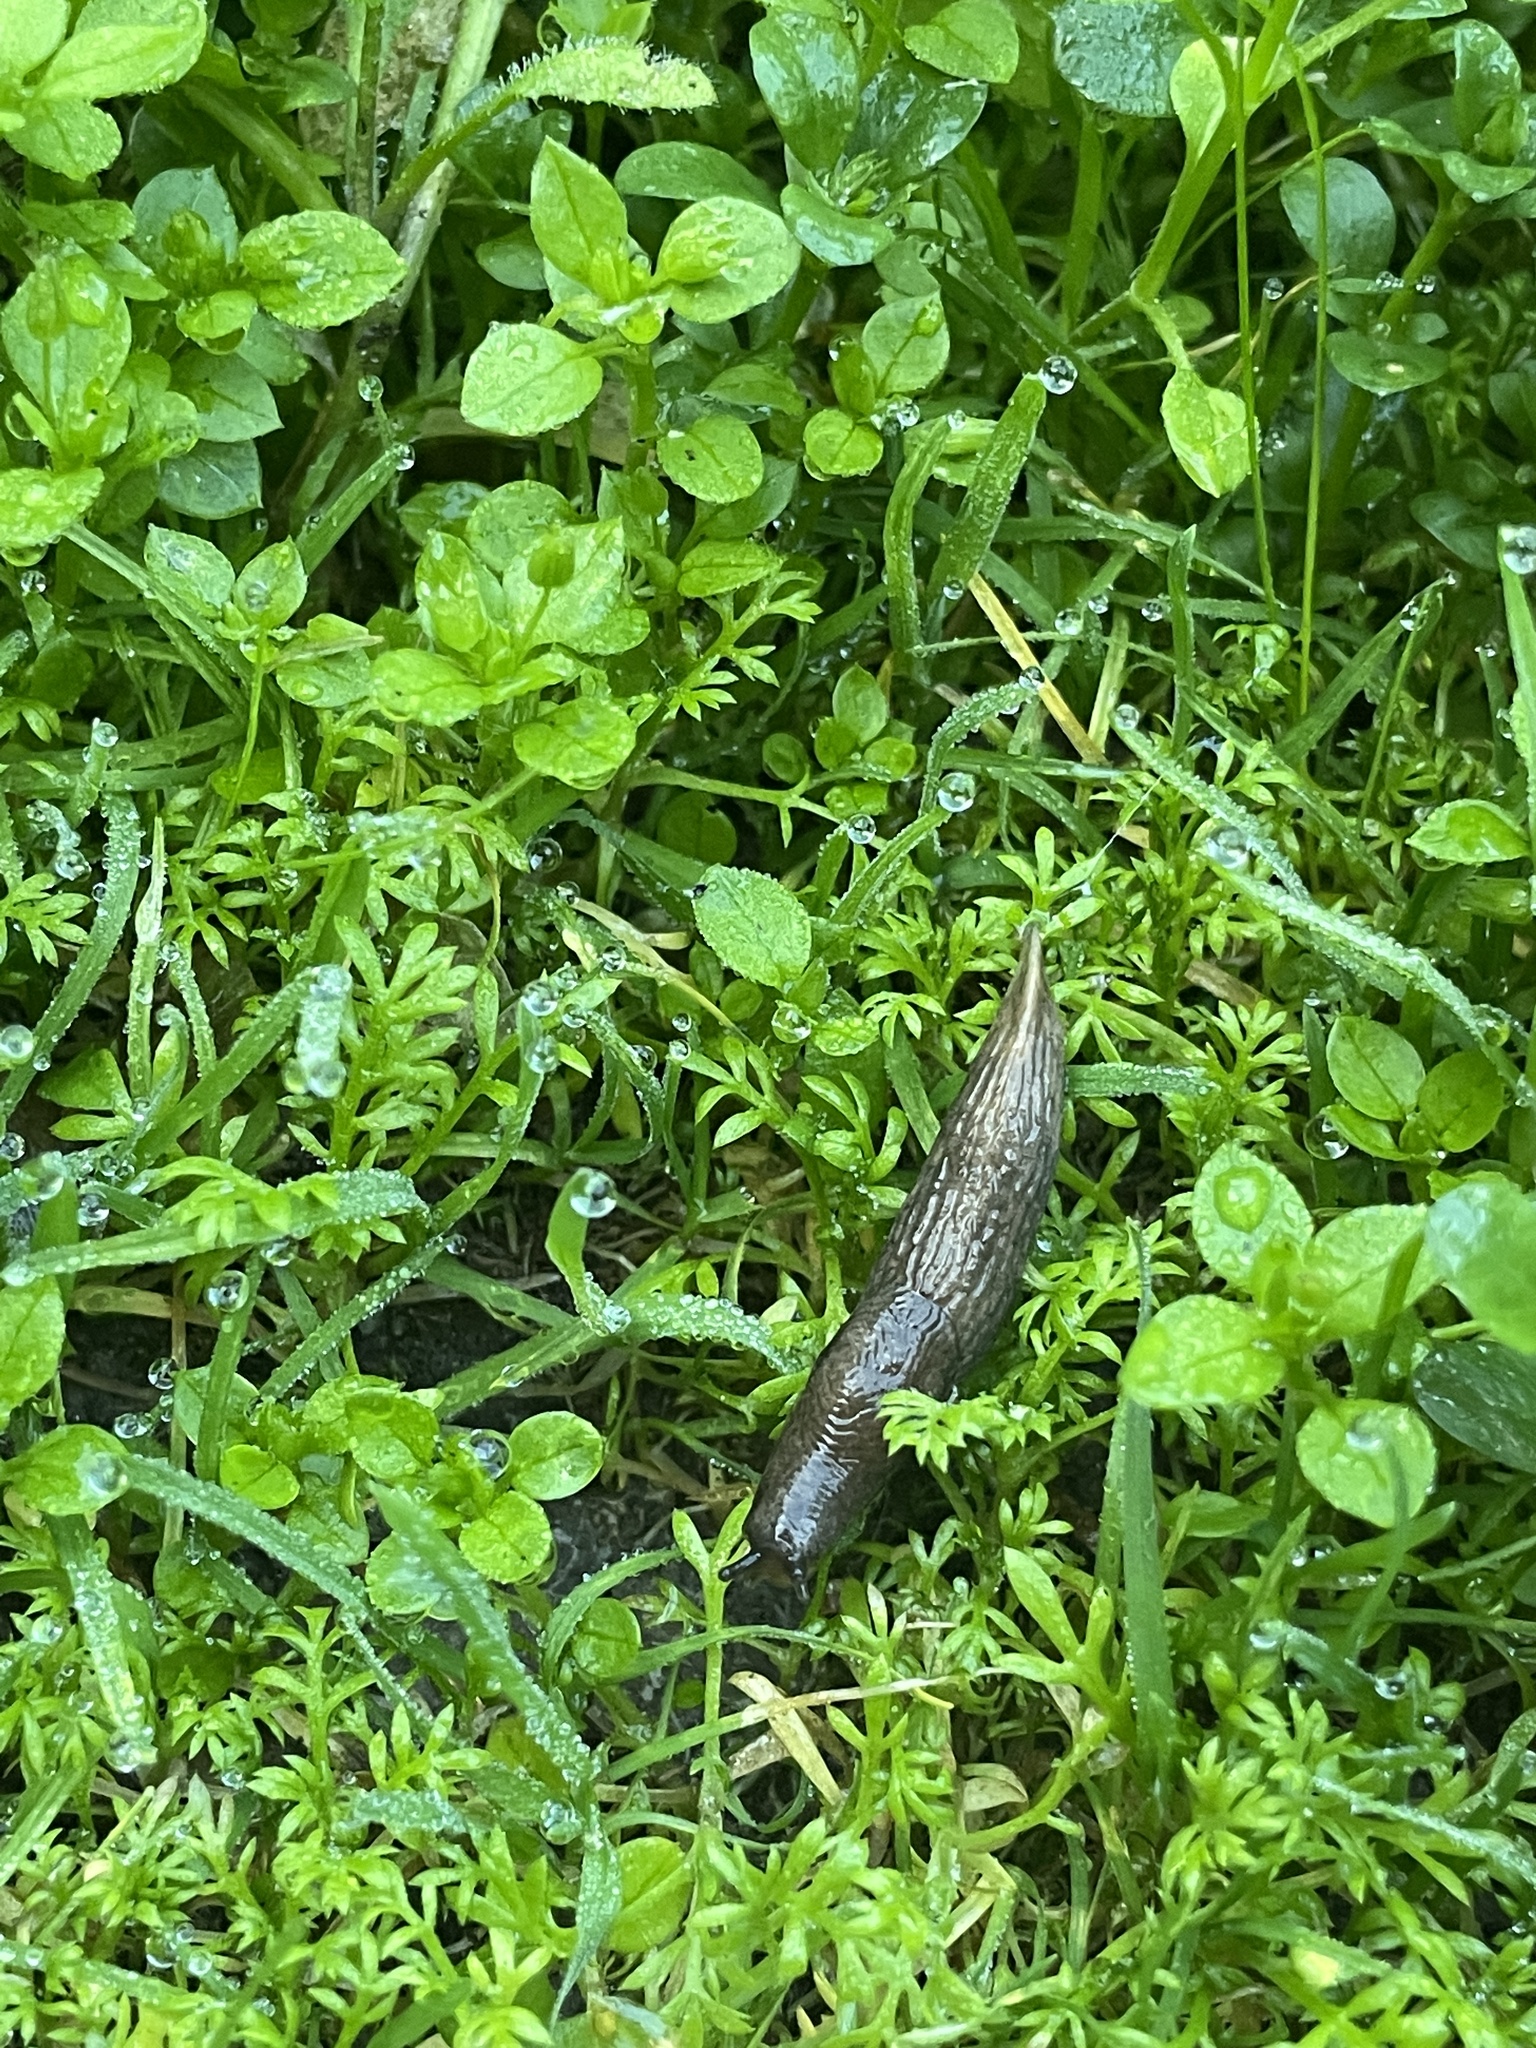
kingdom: Animalia
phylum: Mollusca
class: Gastropoda
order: Stylommatophora
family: Agriolimacidae
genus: Deroceras
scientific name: Deroceras reticulatum
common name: Gray field slug
